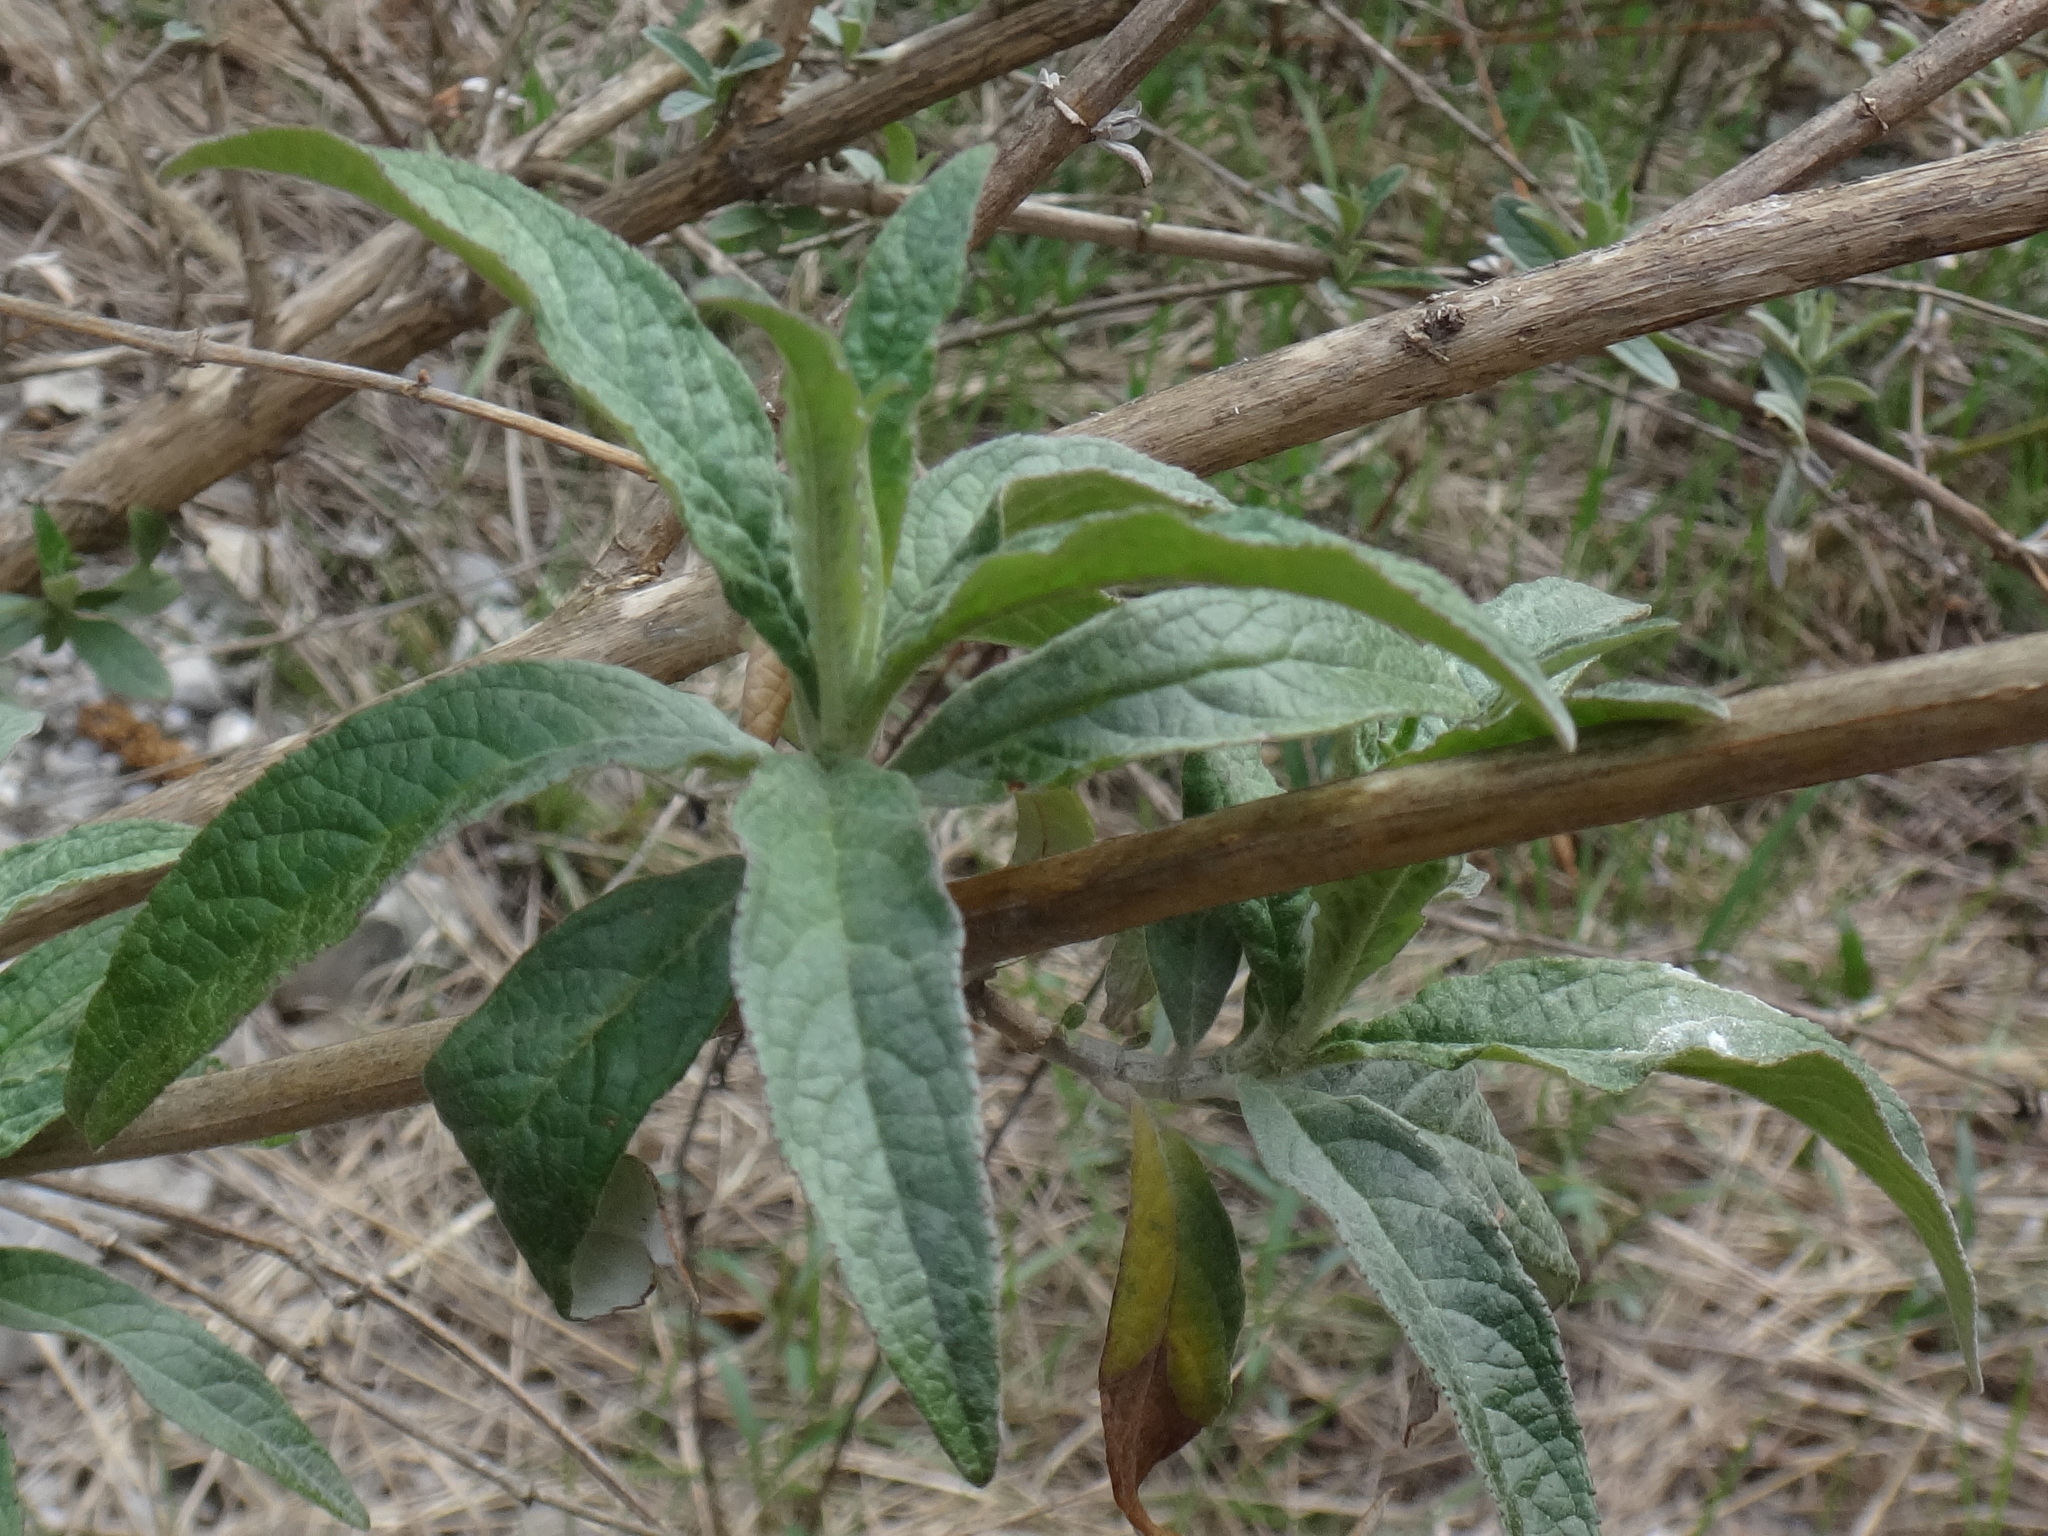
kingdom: Plantae
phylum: Tracheophyta
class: Magnoliopsida
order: Lamiales
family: Scrophulariaceae
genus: Buddleja
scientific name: Buddleja davidii
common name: Butterfly-bush
